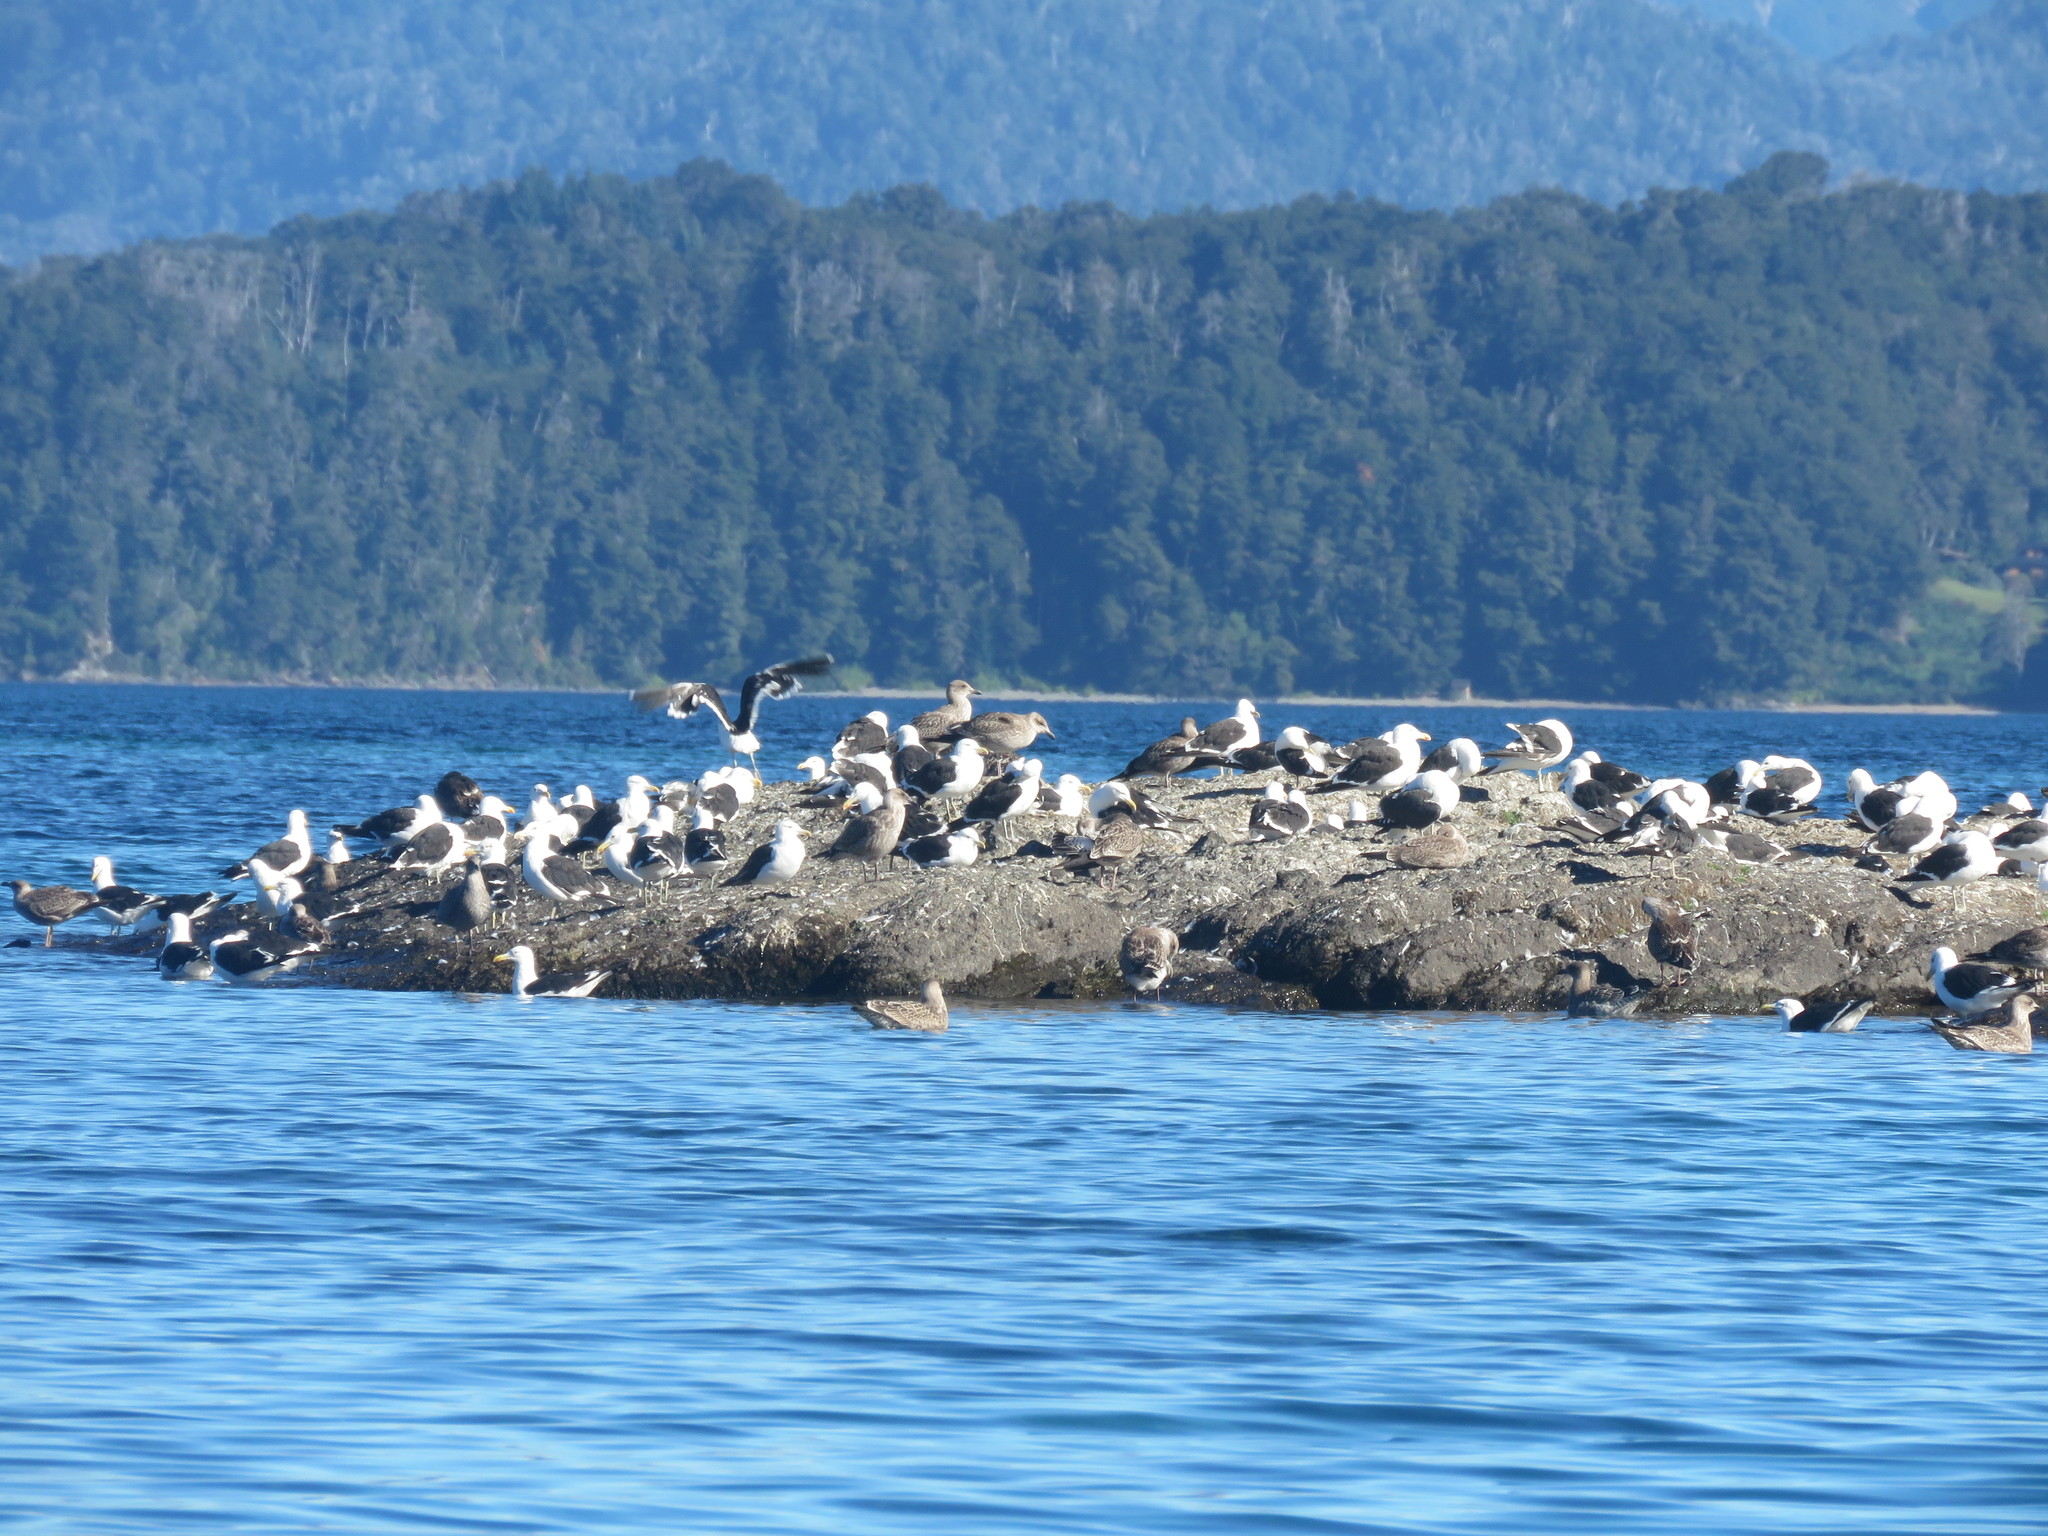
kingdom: Animalia
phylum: Chordata
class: Aves
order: Charadriiformes
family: Laridae
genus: Larus
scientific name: Larus dominicanus
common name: Kelp gull
